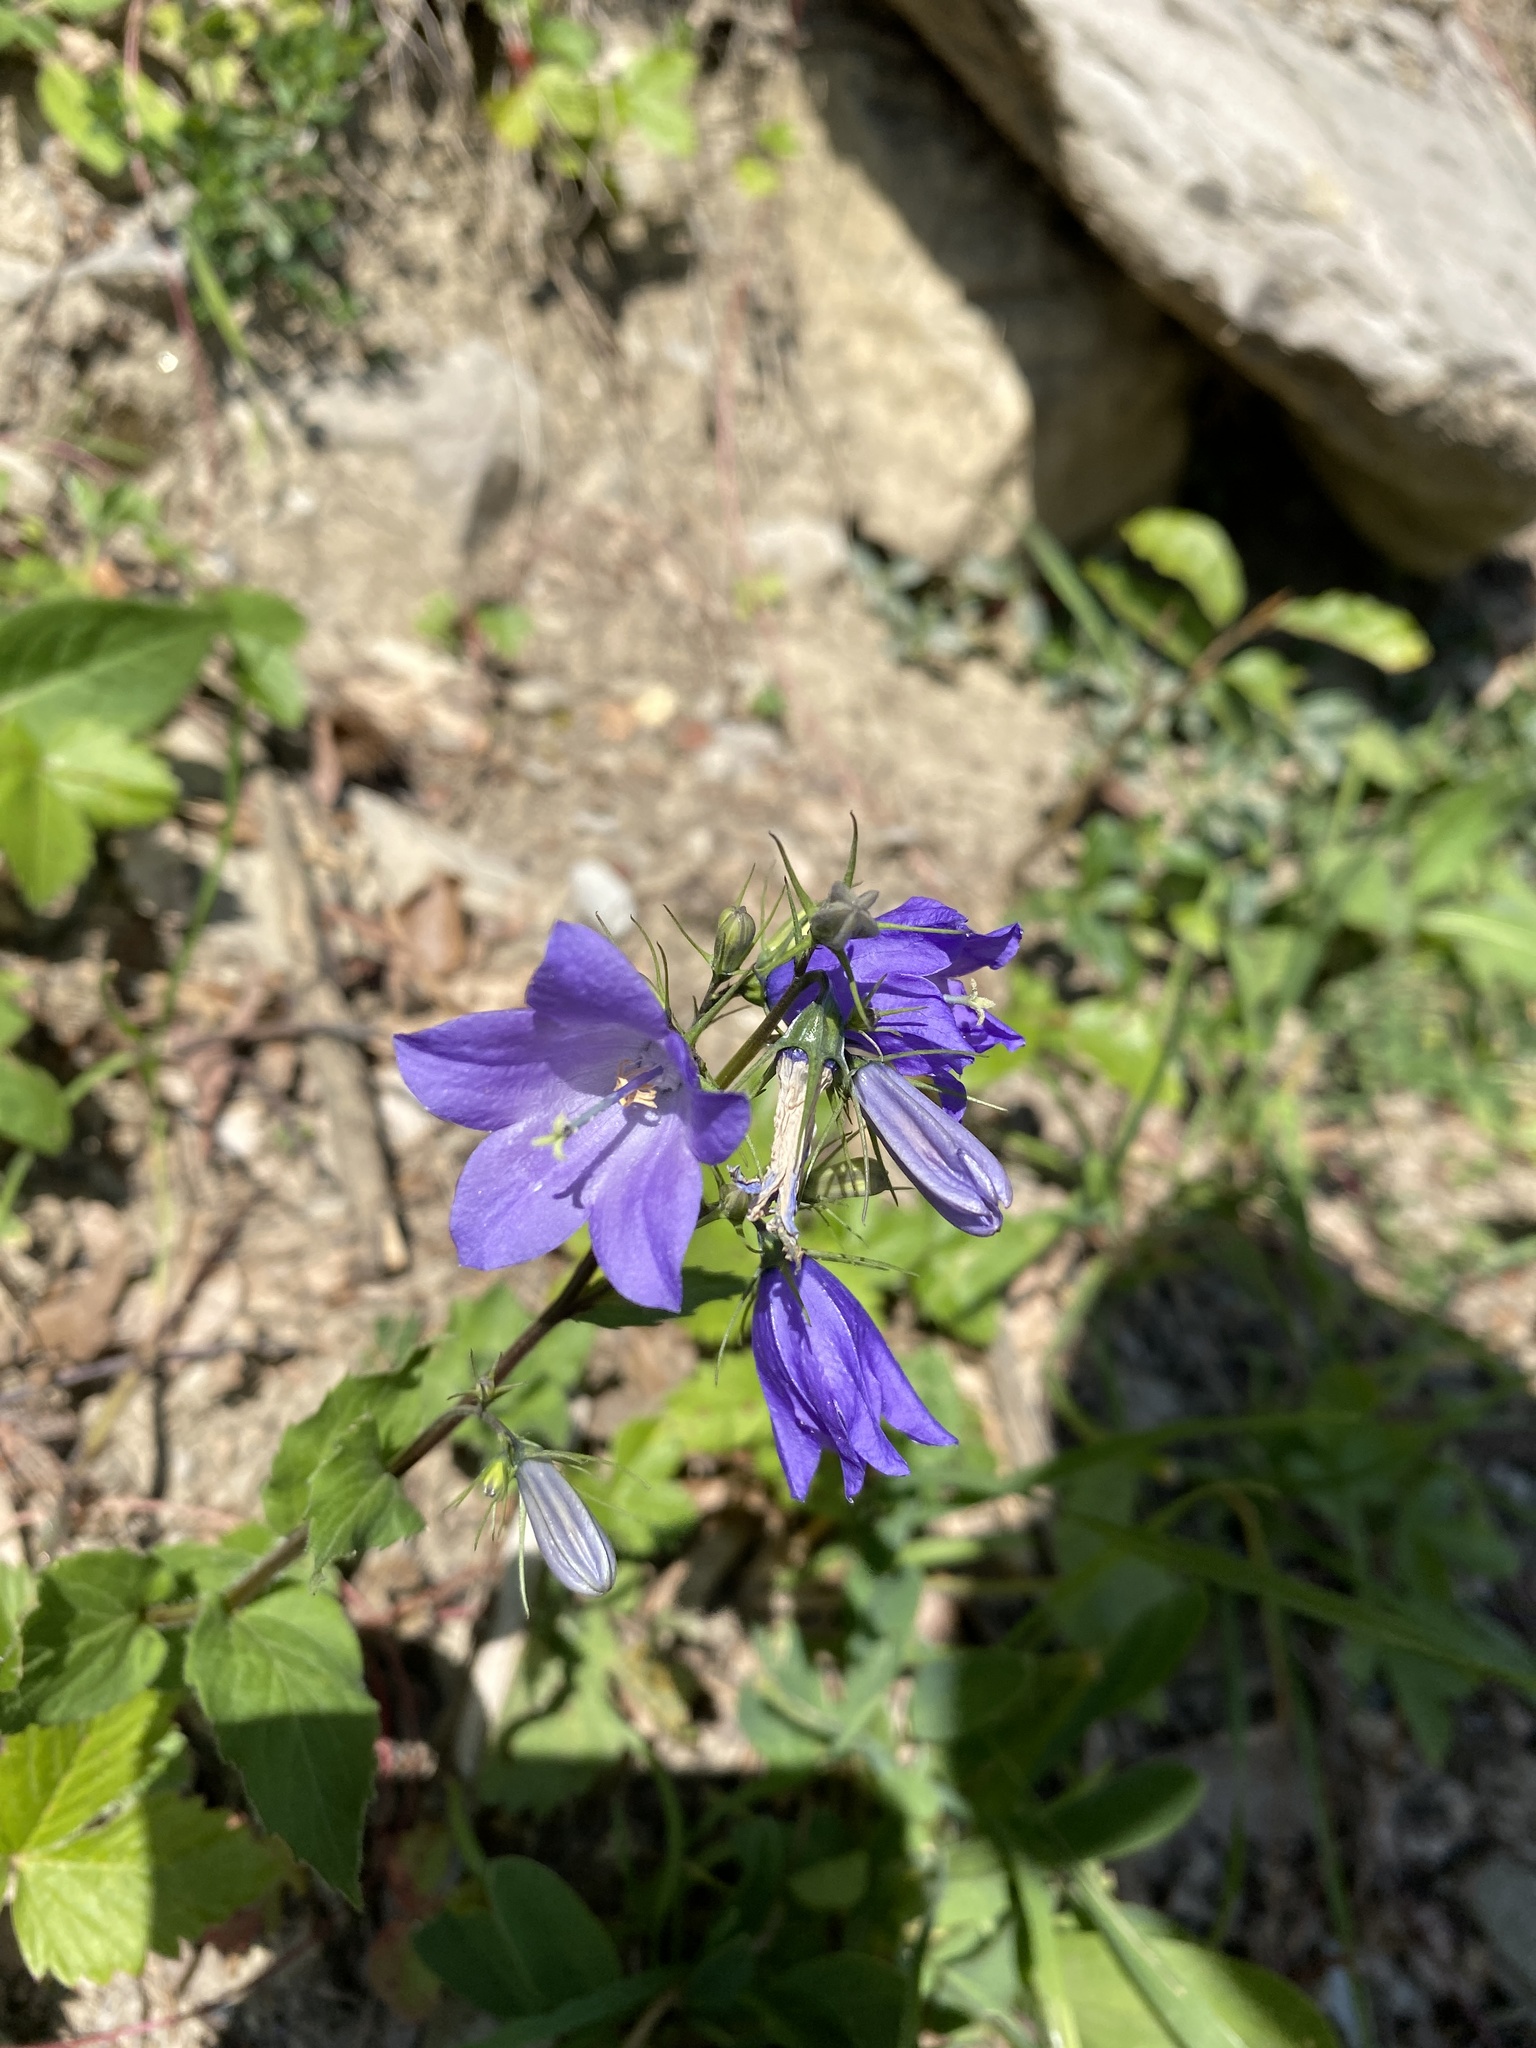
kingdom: Plantae
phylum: Tracheophyta
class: Magnoliopsida
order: Asterales
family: Campanulaceae
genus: Campanula
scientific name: Campanula rhomboidalis
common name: Broad-leaved harebell
